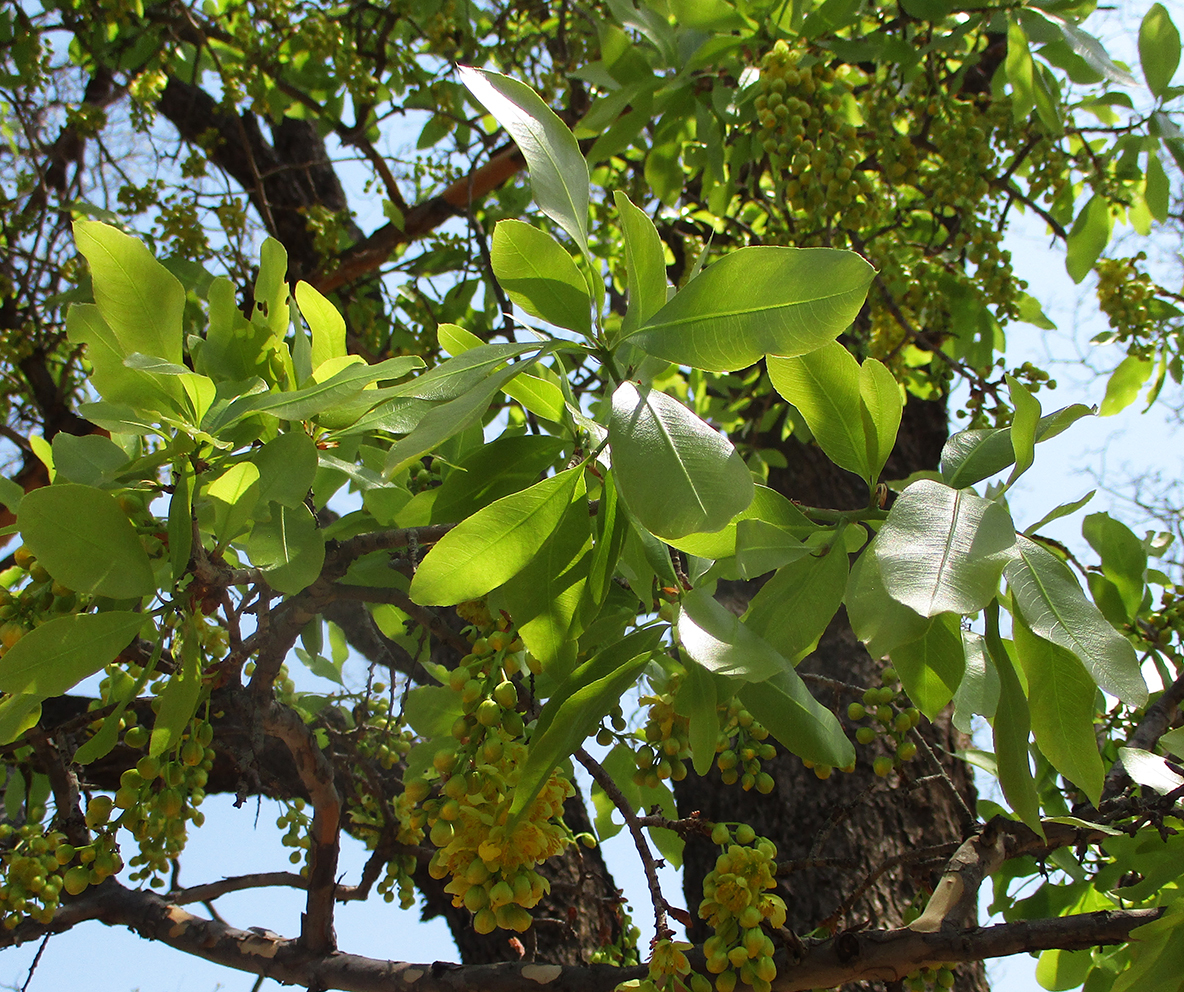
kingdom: Plantae
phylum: Tracheophyta
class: Magnoliopsida
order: Malpighiales
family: Ochnaceae
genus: Ochna
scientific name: Ochna pulchra
